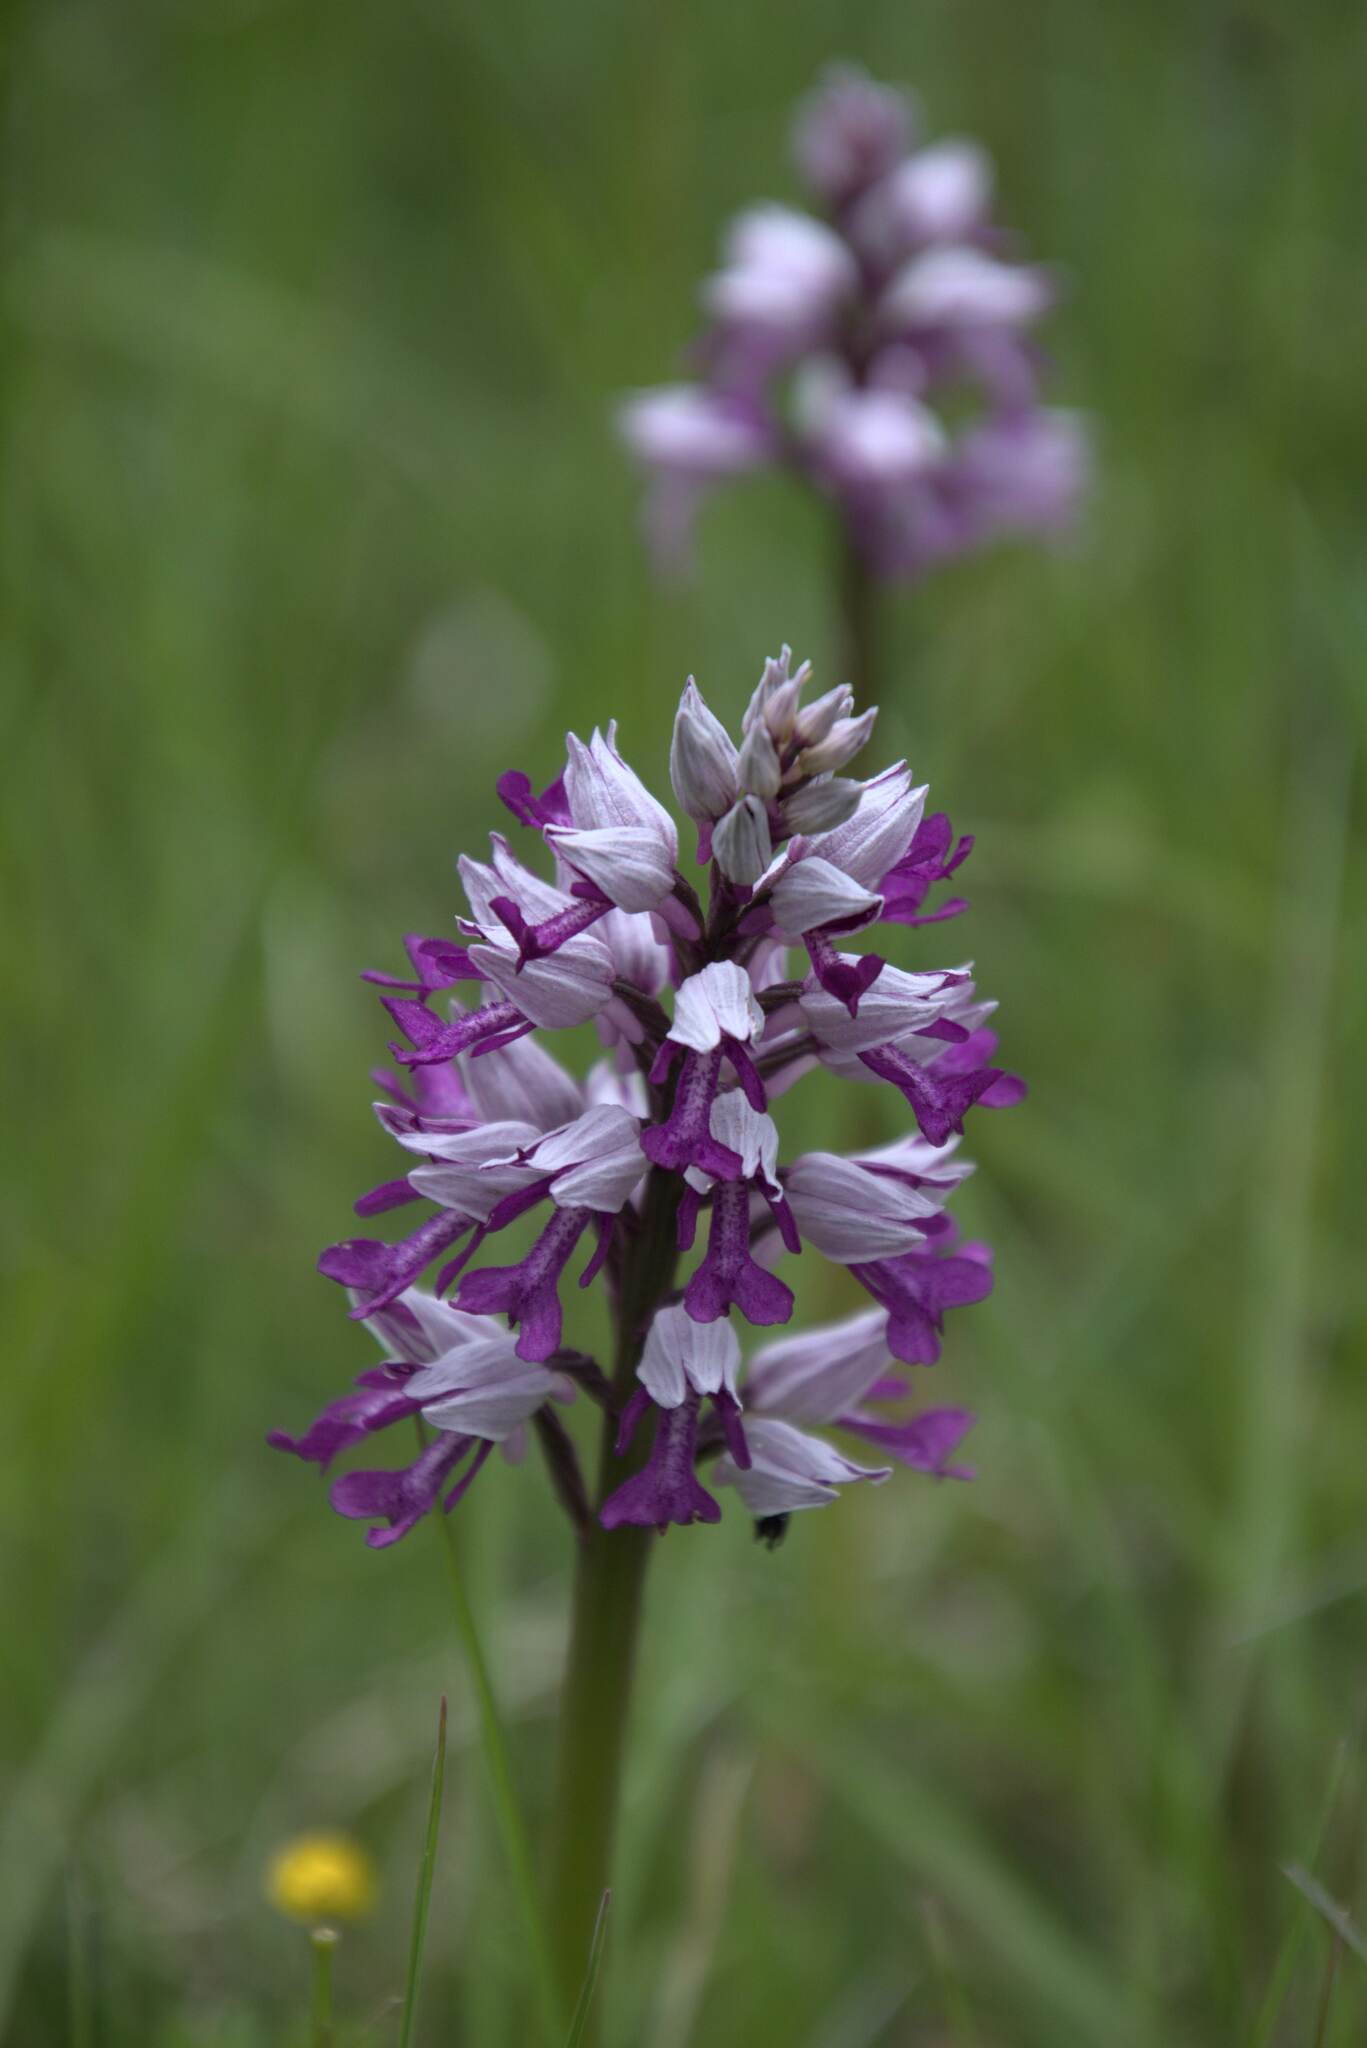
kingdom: Plantae
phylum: Tracheophyta
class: Liliopsida
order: Asparagales
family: Orchidaceae
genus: Orchis
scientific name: Orchis militaris
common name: Military orchid
